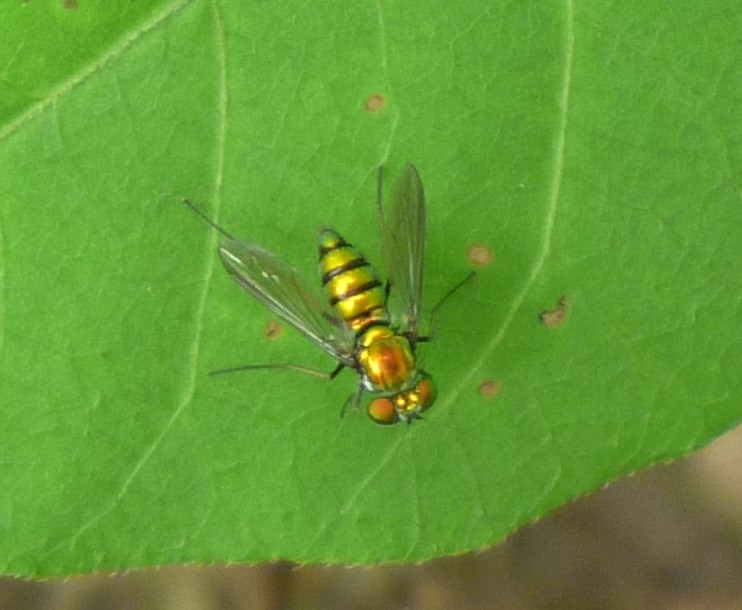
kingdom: Animalia
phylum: Arthropoda
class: Insecta
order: Diptera
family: Dolichopodidae
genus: Condylostylus
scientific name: Condylostylus
